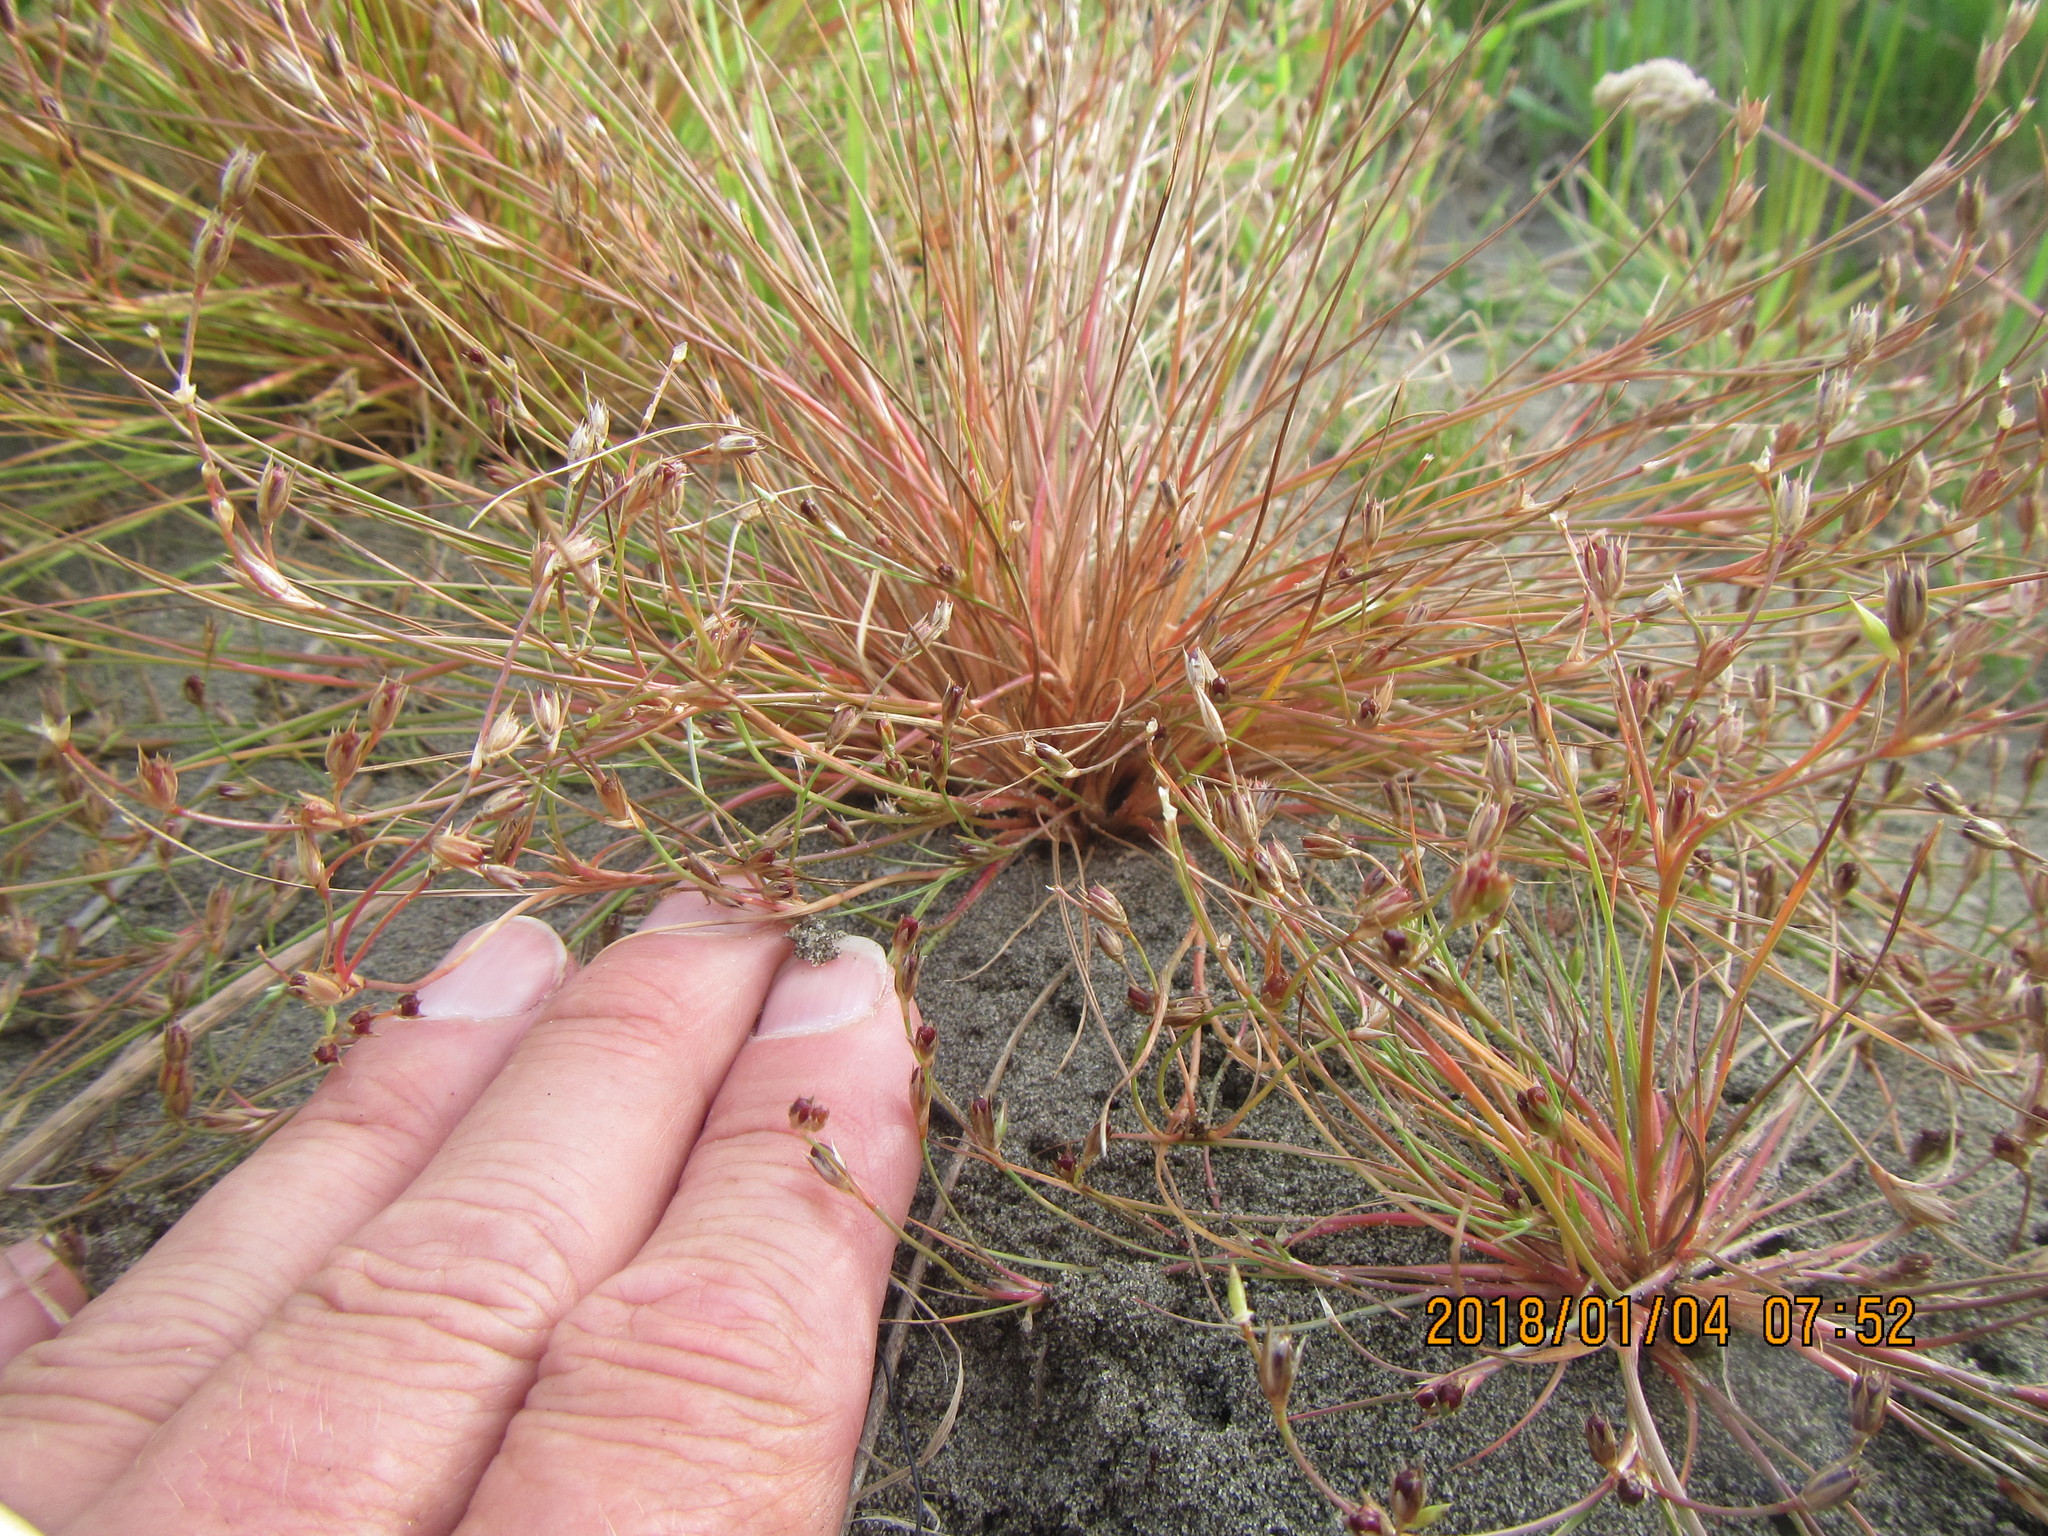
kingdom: Plantae
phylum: Tracheophyta
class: Liliopsida
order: Poales
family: Juncaceae
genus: Juncus
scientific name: Juncus bufonius
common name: Toad rush
